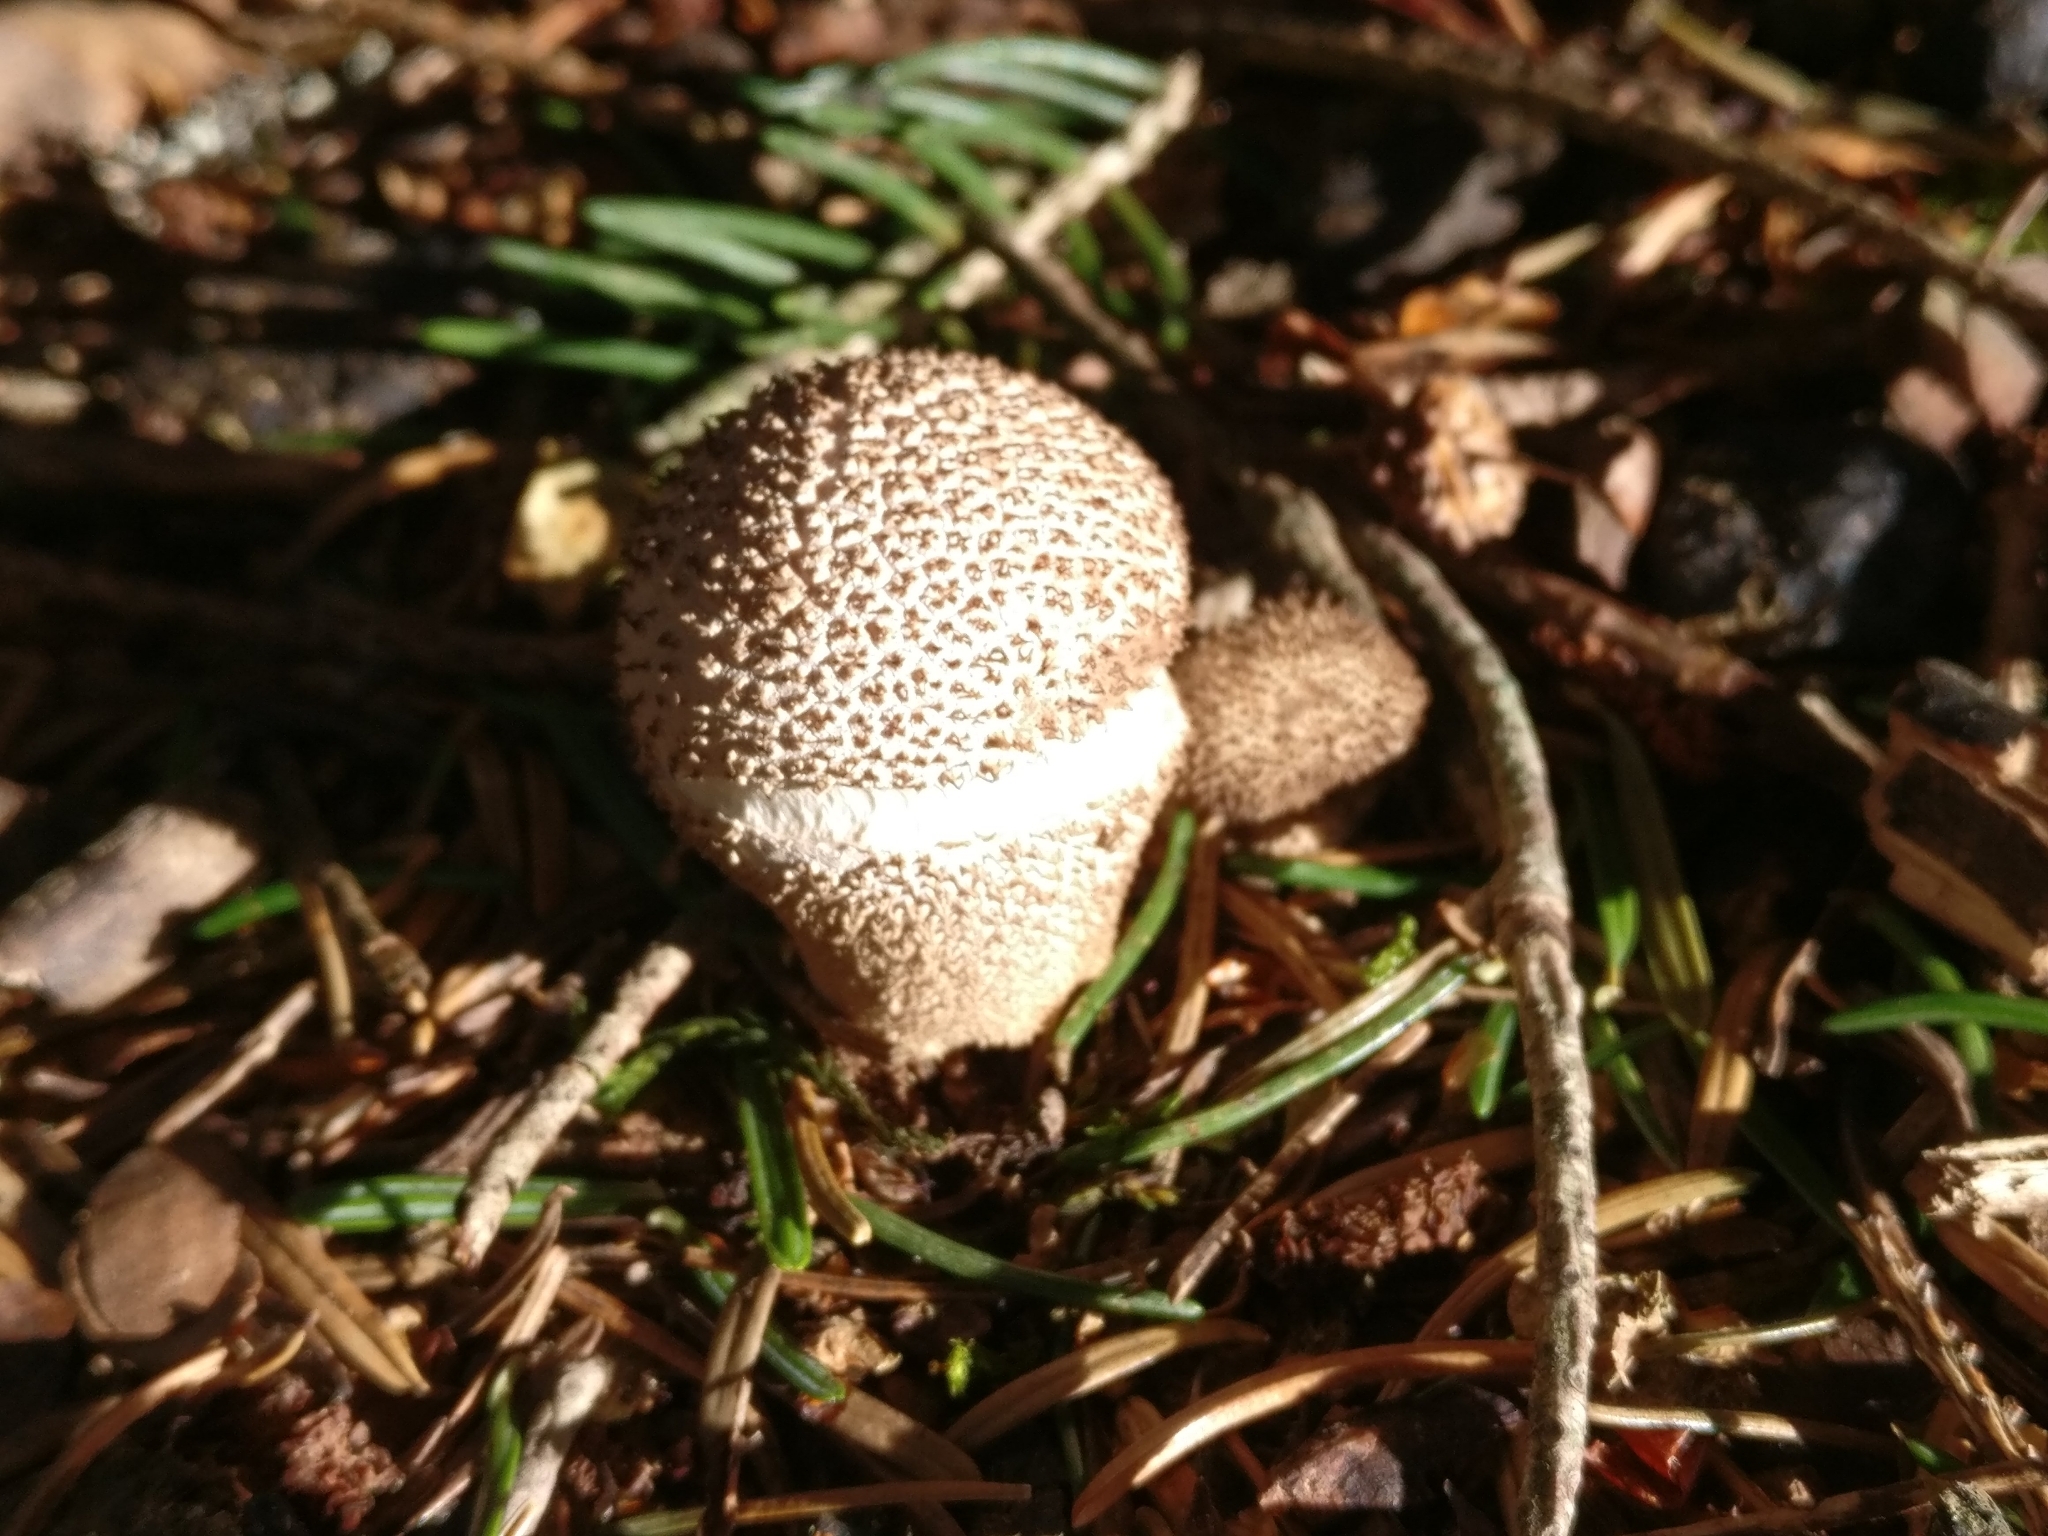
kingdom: Fungi
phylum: Basidiomycota
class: Agaricomycetes
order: Agaricales
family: Lycoperdaceae
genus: Lycoperdon
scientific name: Lycoperdon perlatum
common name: Common puffball
